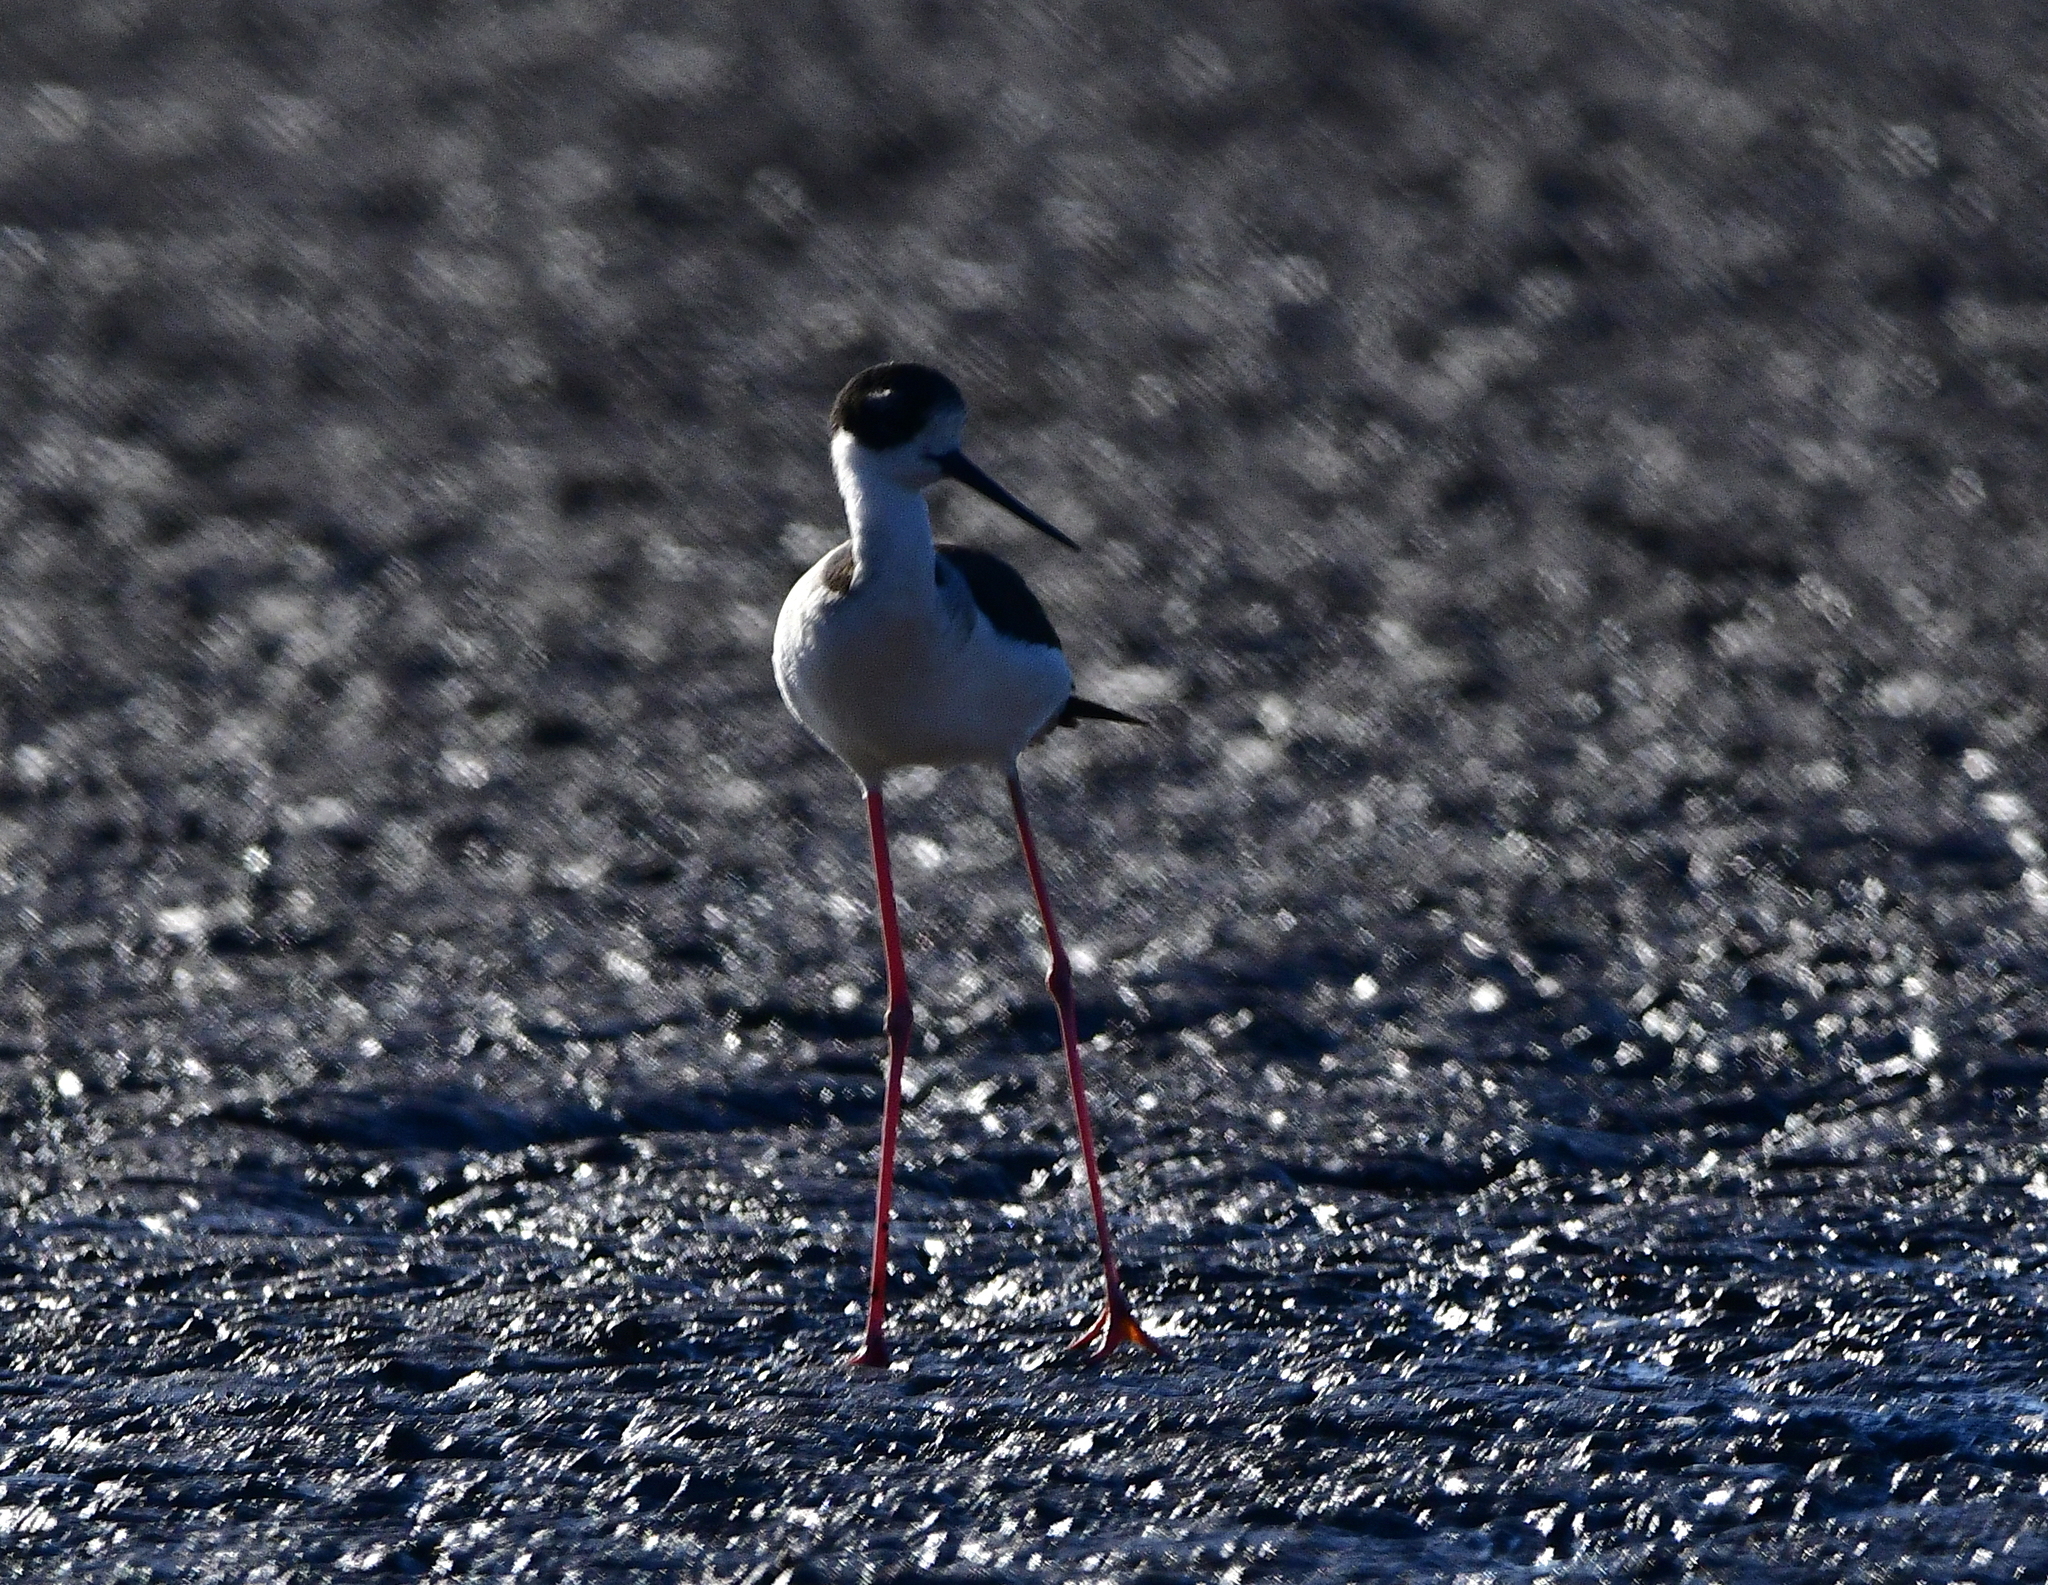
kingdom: Animalia
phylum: Chordata
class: Aves
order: Charadriiformes
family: Recurvirostridae
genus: Himantopus
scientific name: Himantopus mexicanus
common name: Black-necked stilt
